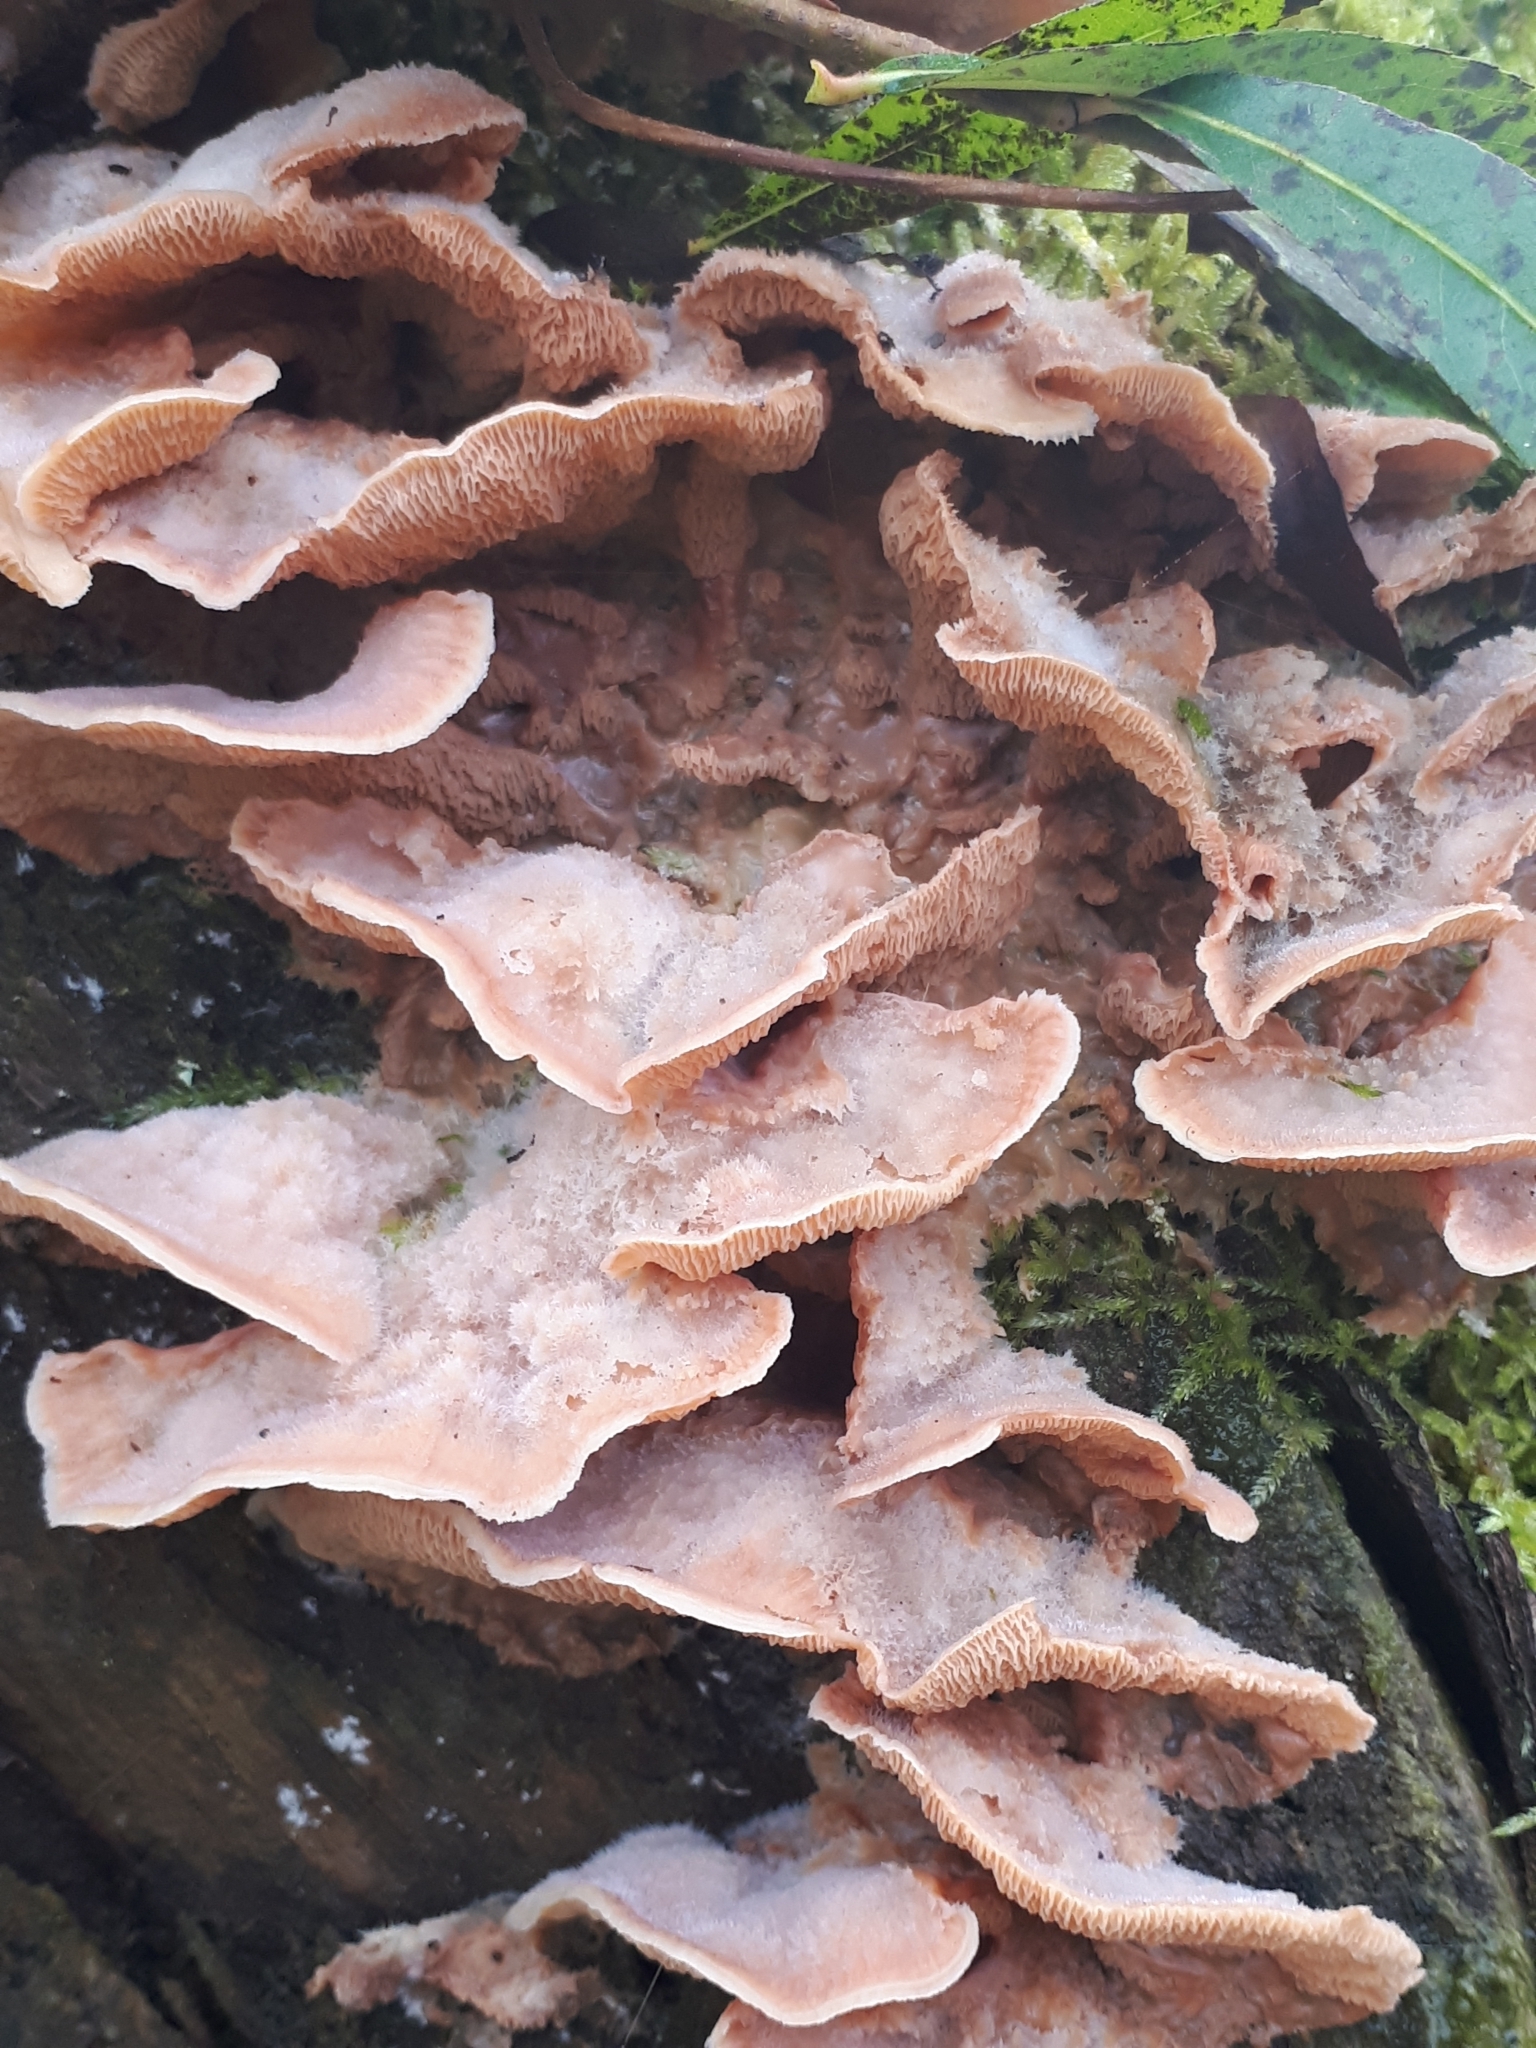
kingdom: Fungi
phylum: Basidiomycota
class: Agaricomycetes
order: Polyporales
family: Meruliaceae
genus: Phlebia
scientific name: Phlebia tremellosa
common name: Jelly rot
